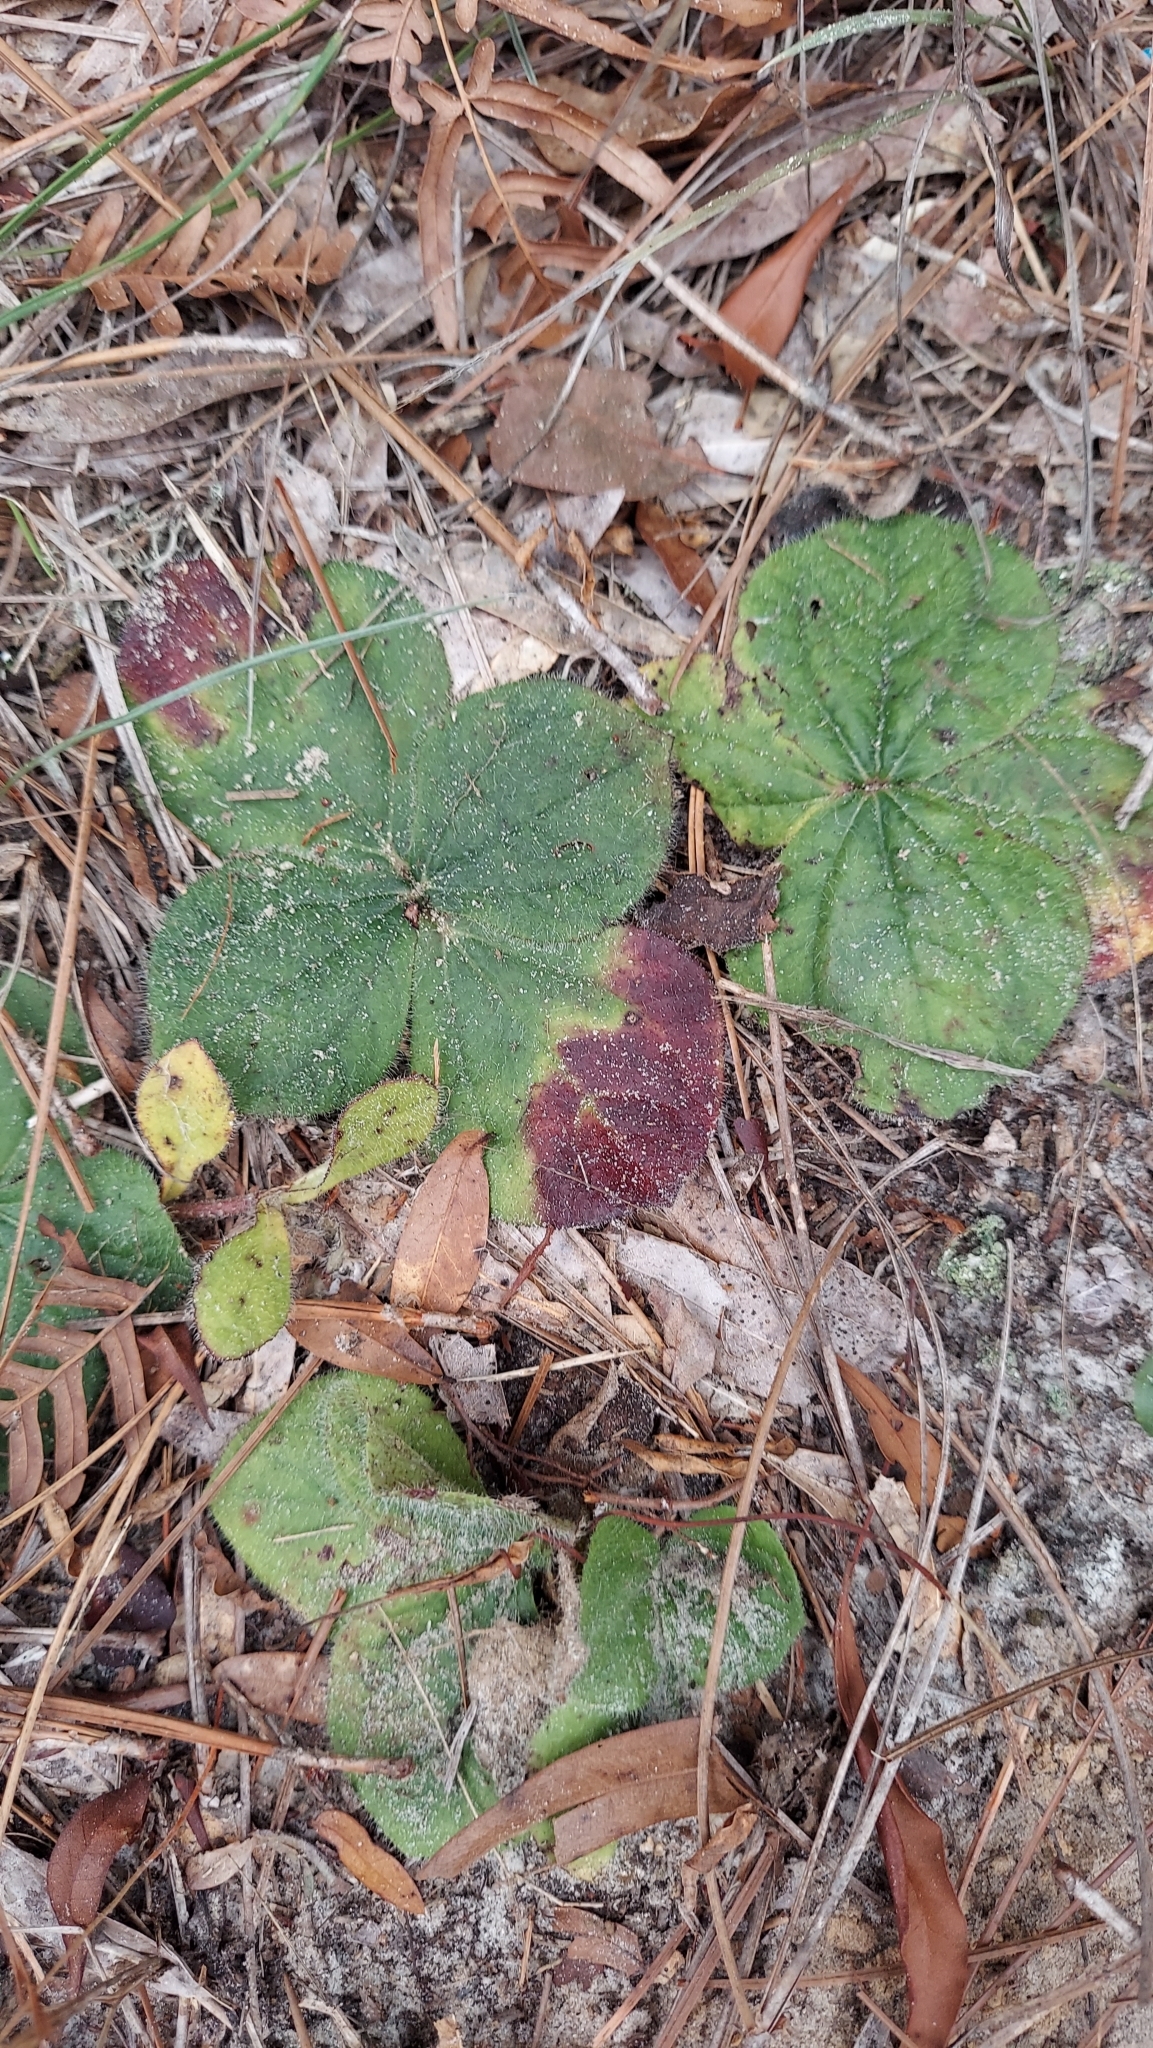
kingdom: Plantae
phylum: Tracheophyta
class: Magnoliopsida
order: Asterales
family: Asteraceae
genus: Helianthus
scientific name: Helianthus radula
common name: Pineland sunflower
